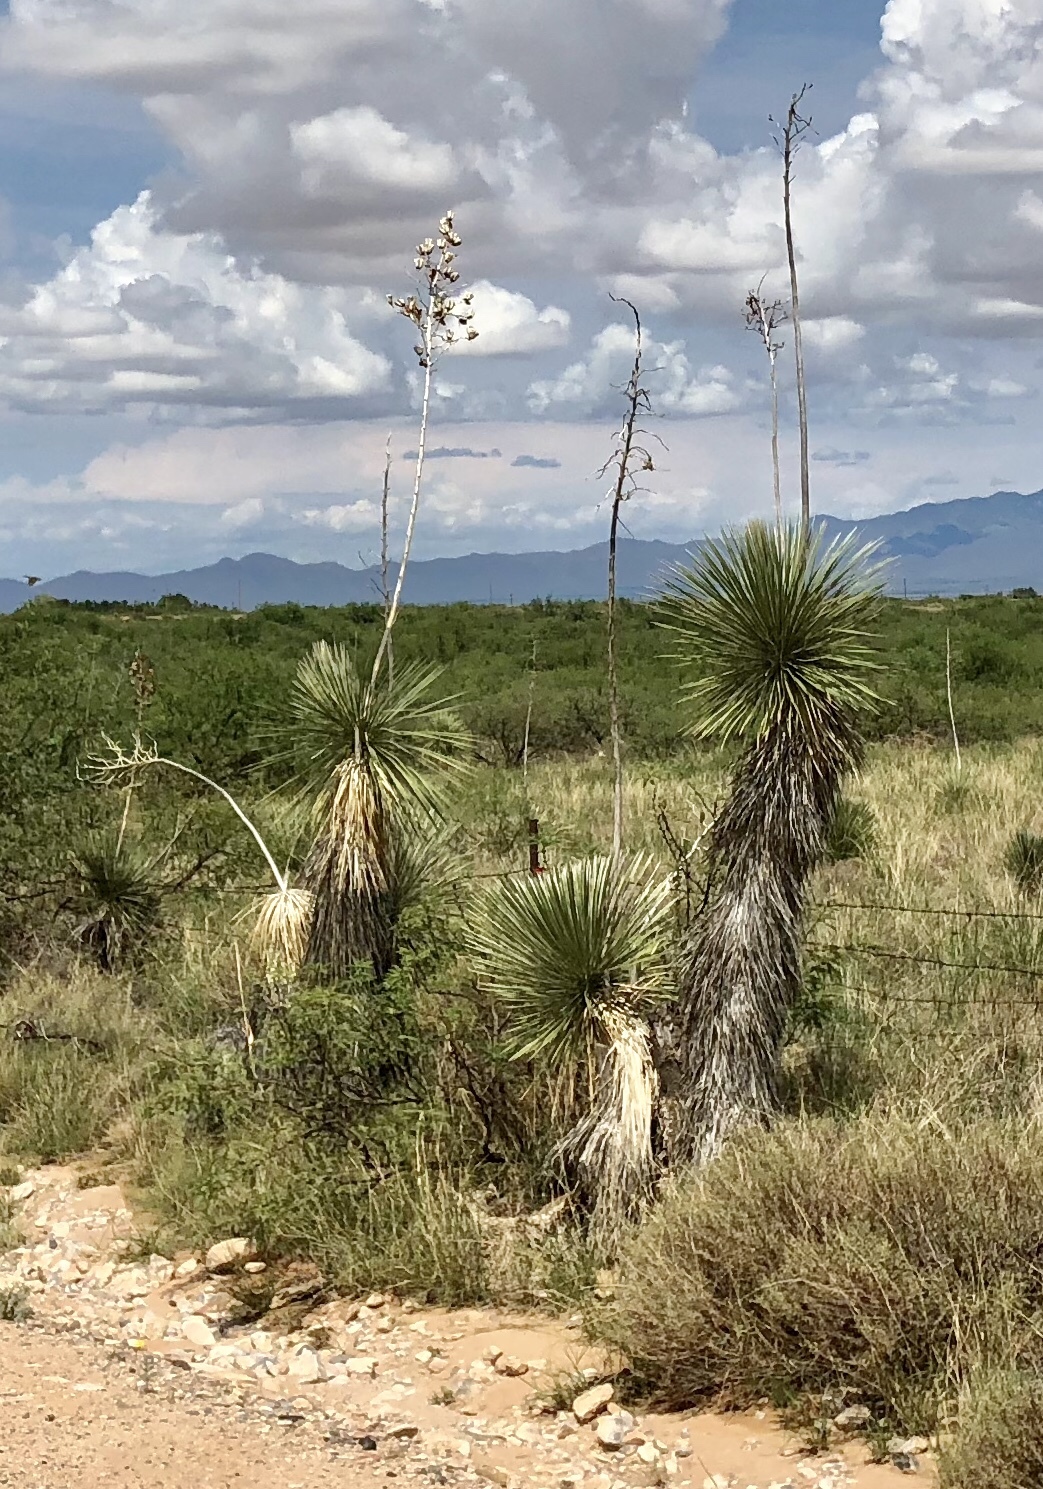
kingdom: Plantae
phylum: Tracheophyta
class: Liliopsida
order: Asparagales
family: Asparagaceae
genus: Yucca
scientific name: Yucca elata
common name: Palmella
